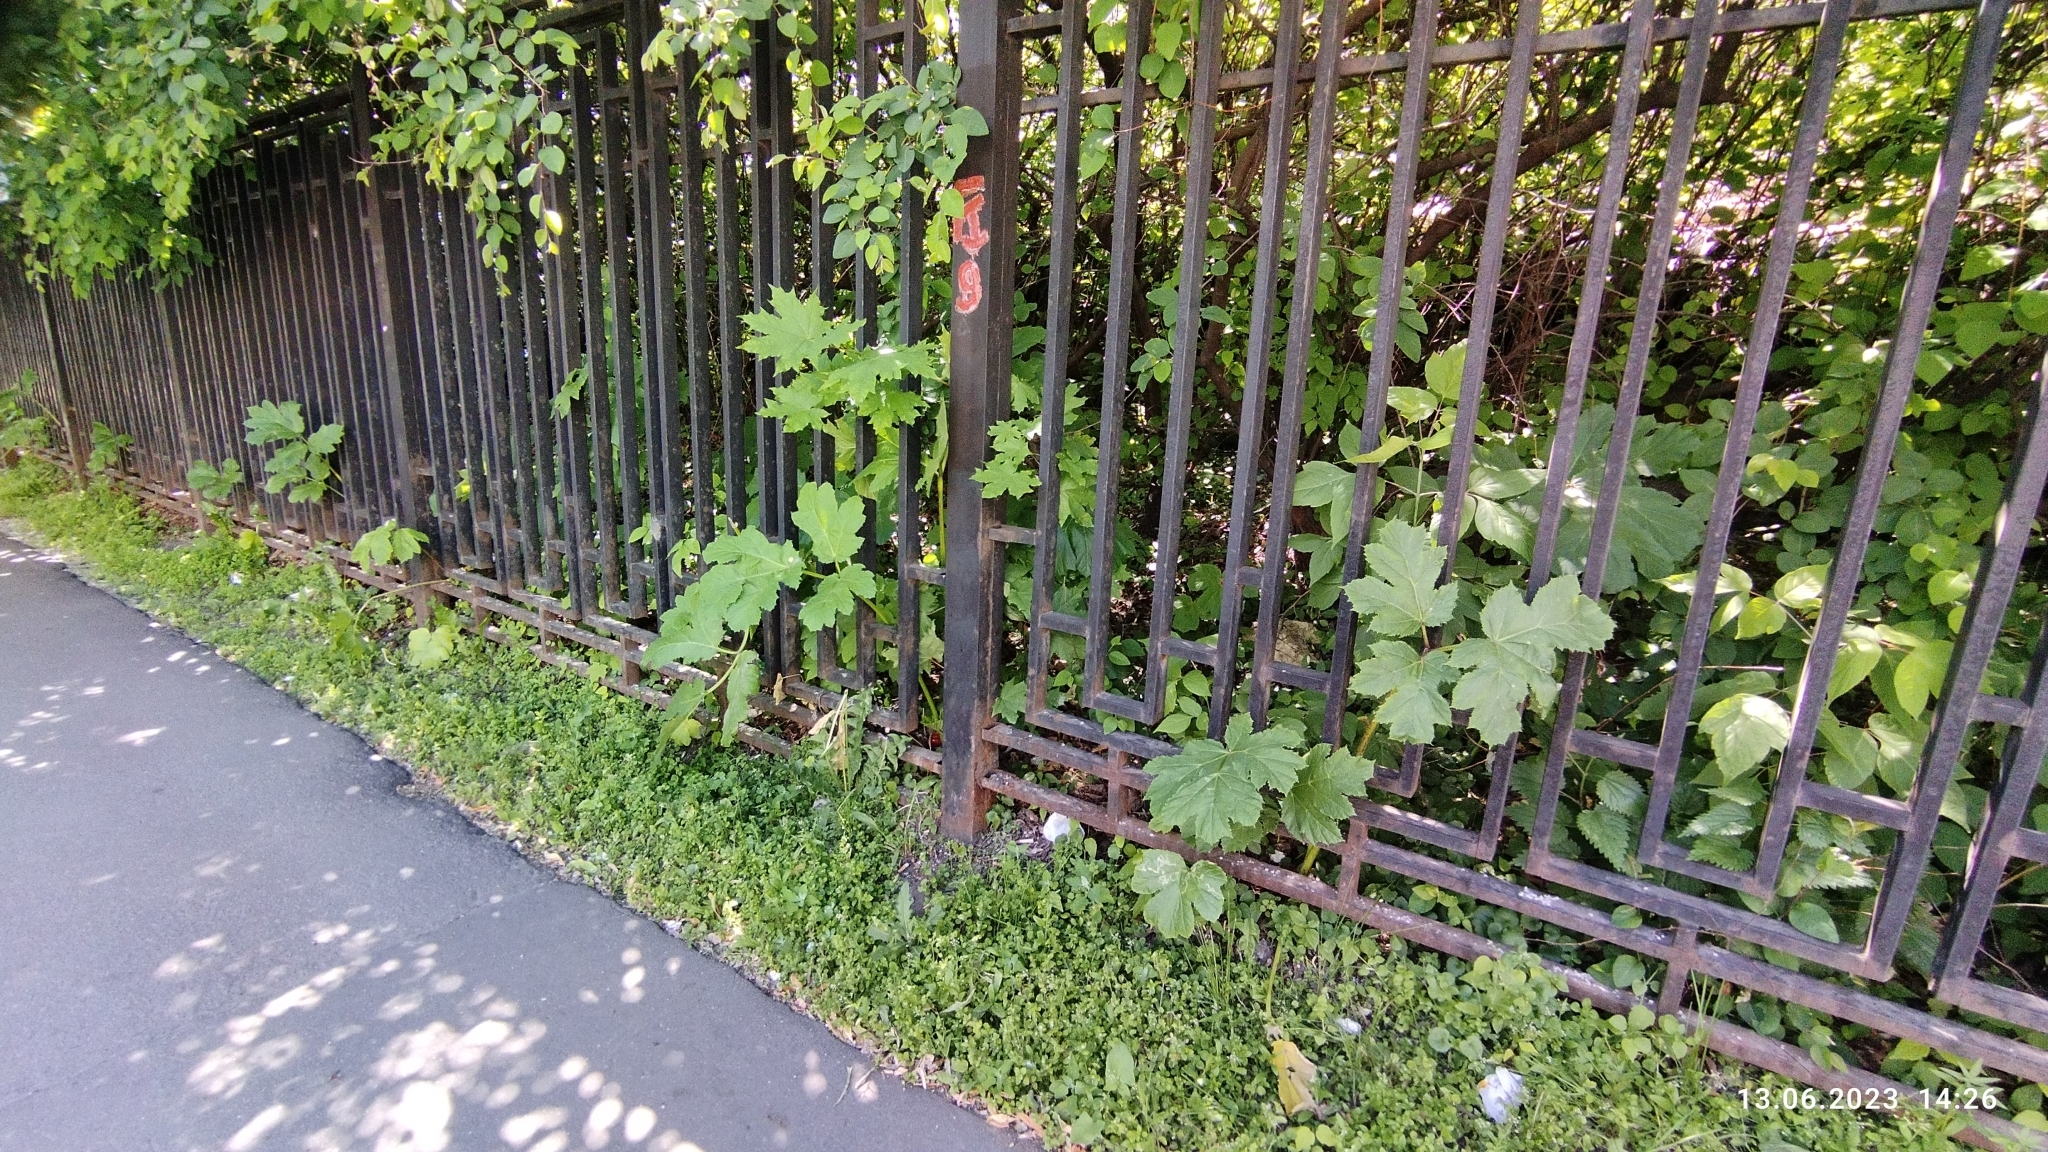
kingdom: Plantae
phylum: Tracheophyta
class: Magnoliopsida
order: Apiales
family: Apiaceae
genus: Heracleum
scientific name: Heracleum sosnowskyi
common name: Sosnowsky's hogweed
